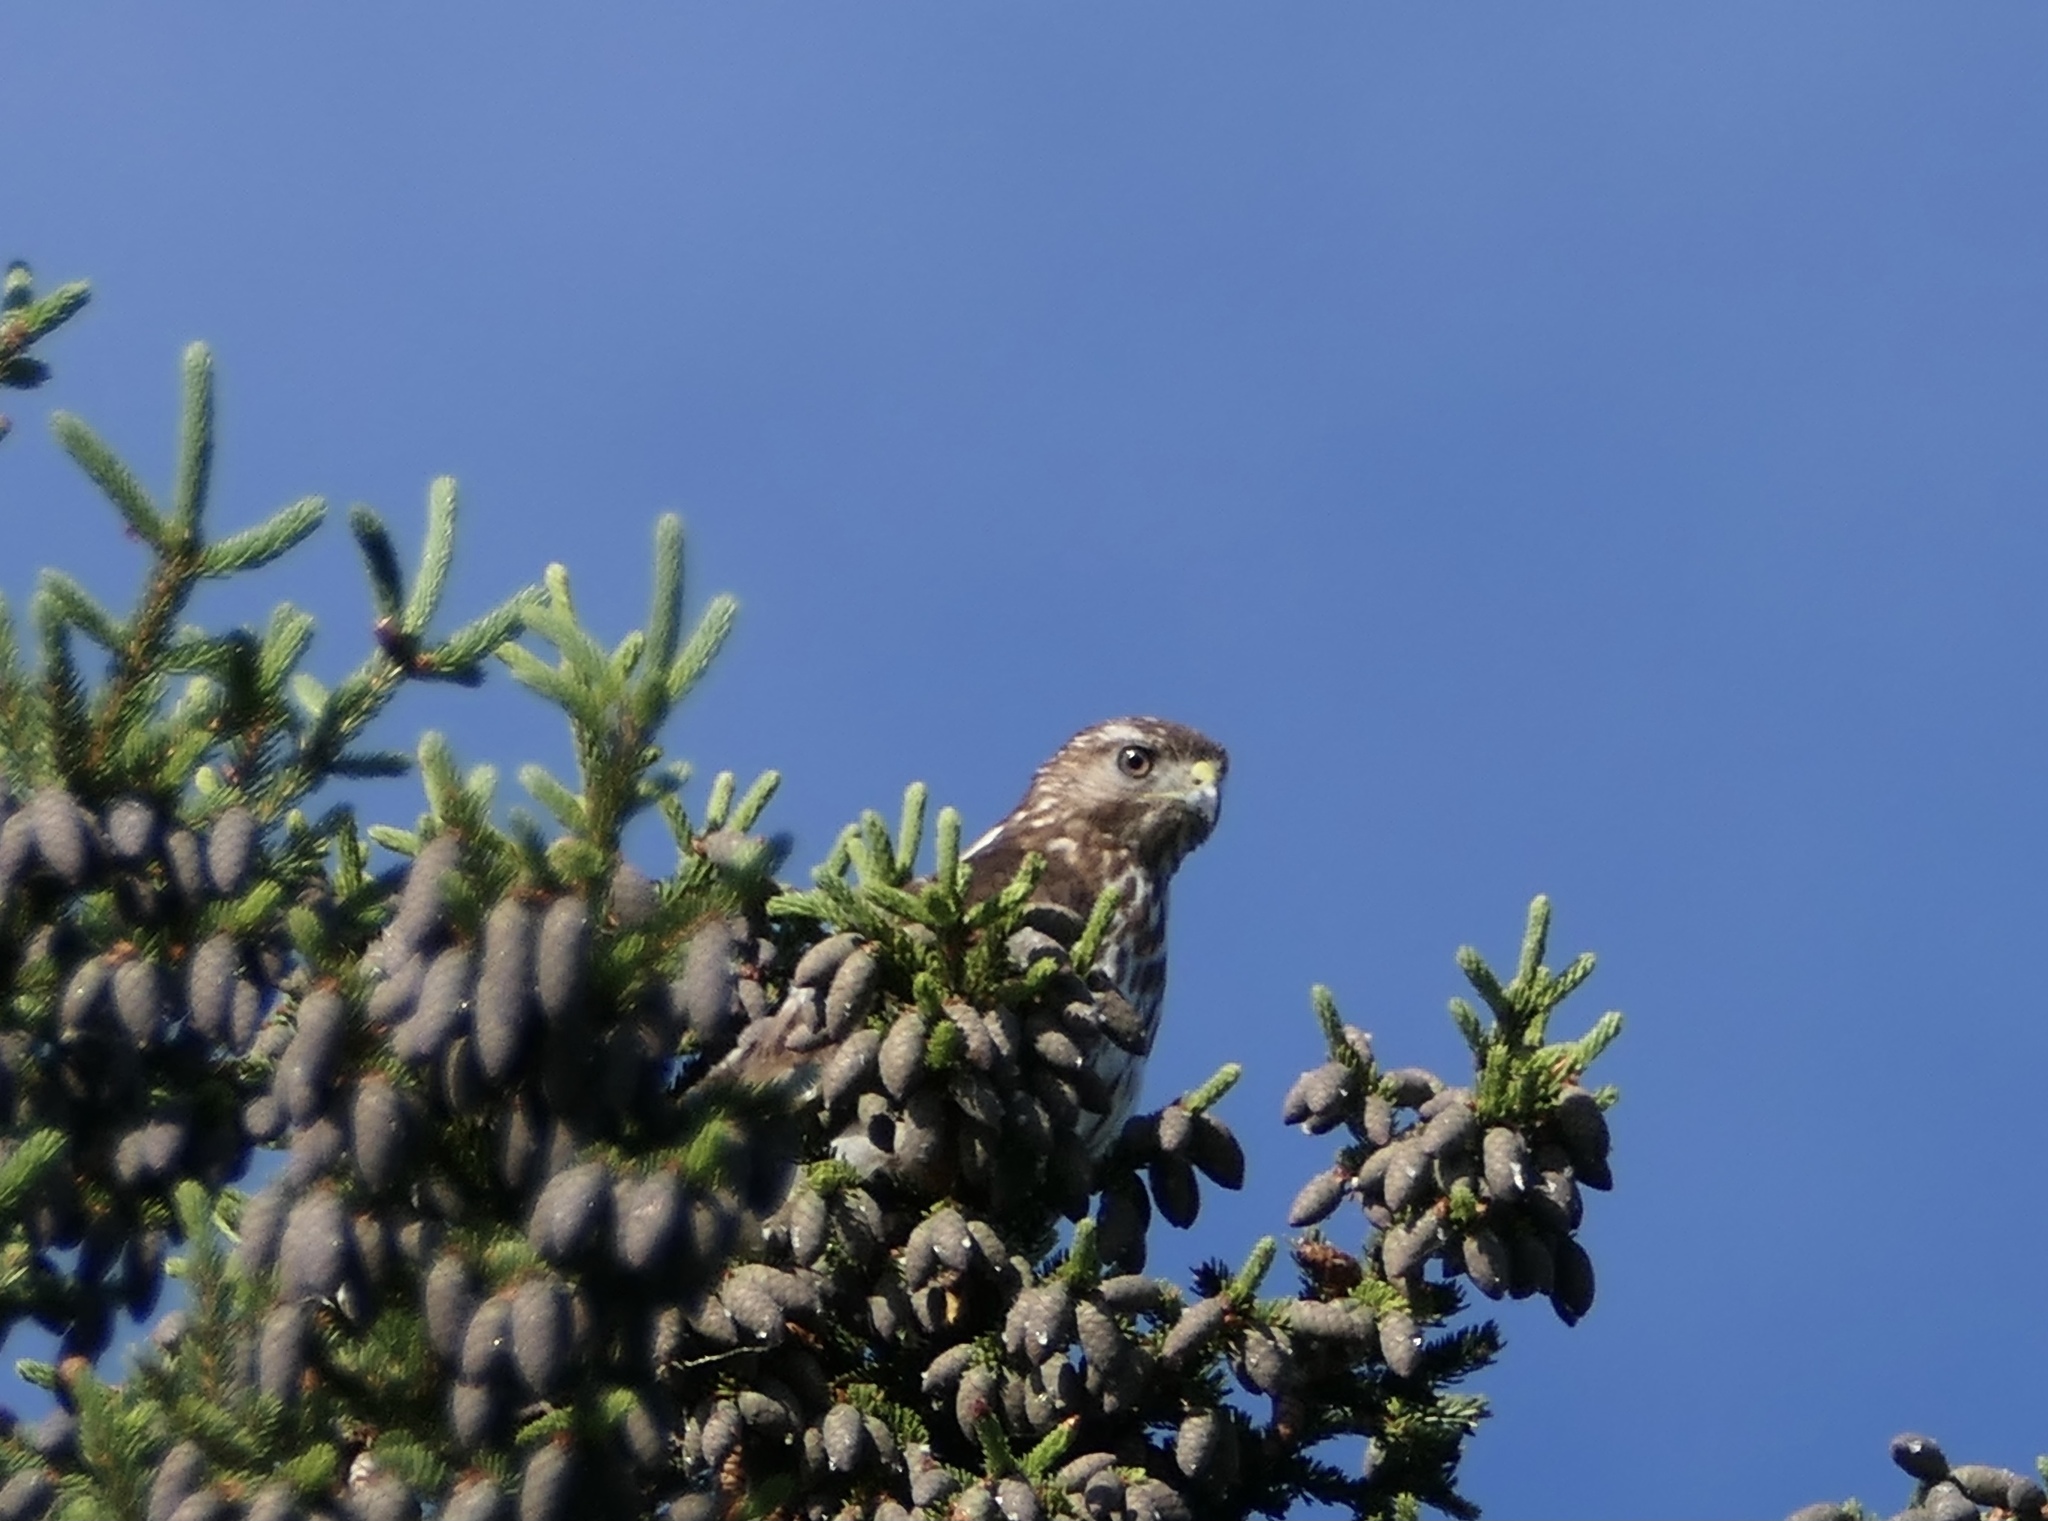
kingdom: Animalia
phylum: Chordata
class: Aves
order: Accipitriformes
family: Accipitridae
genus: Buteo
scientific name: Buteo lineatus
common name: Red-shouldered hawk
